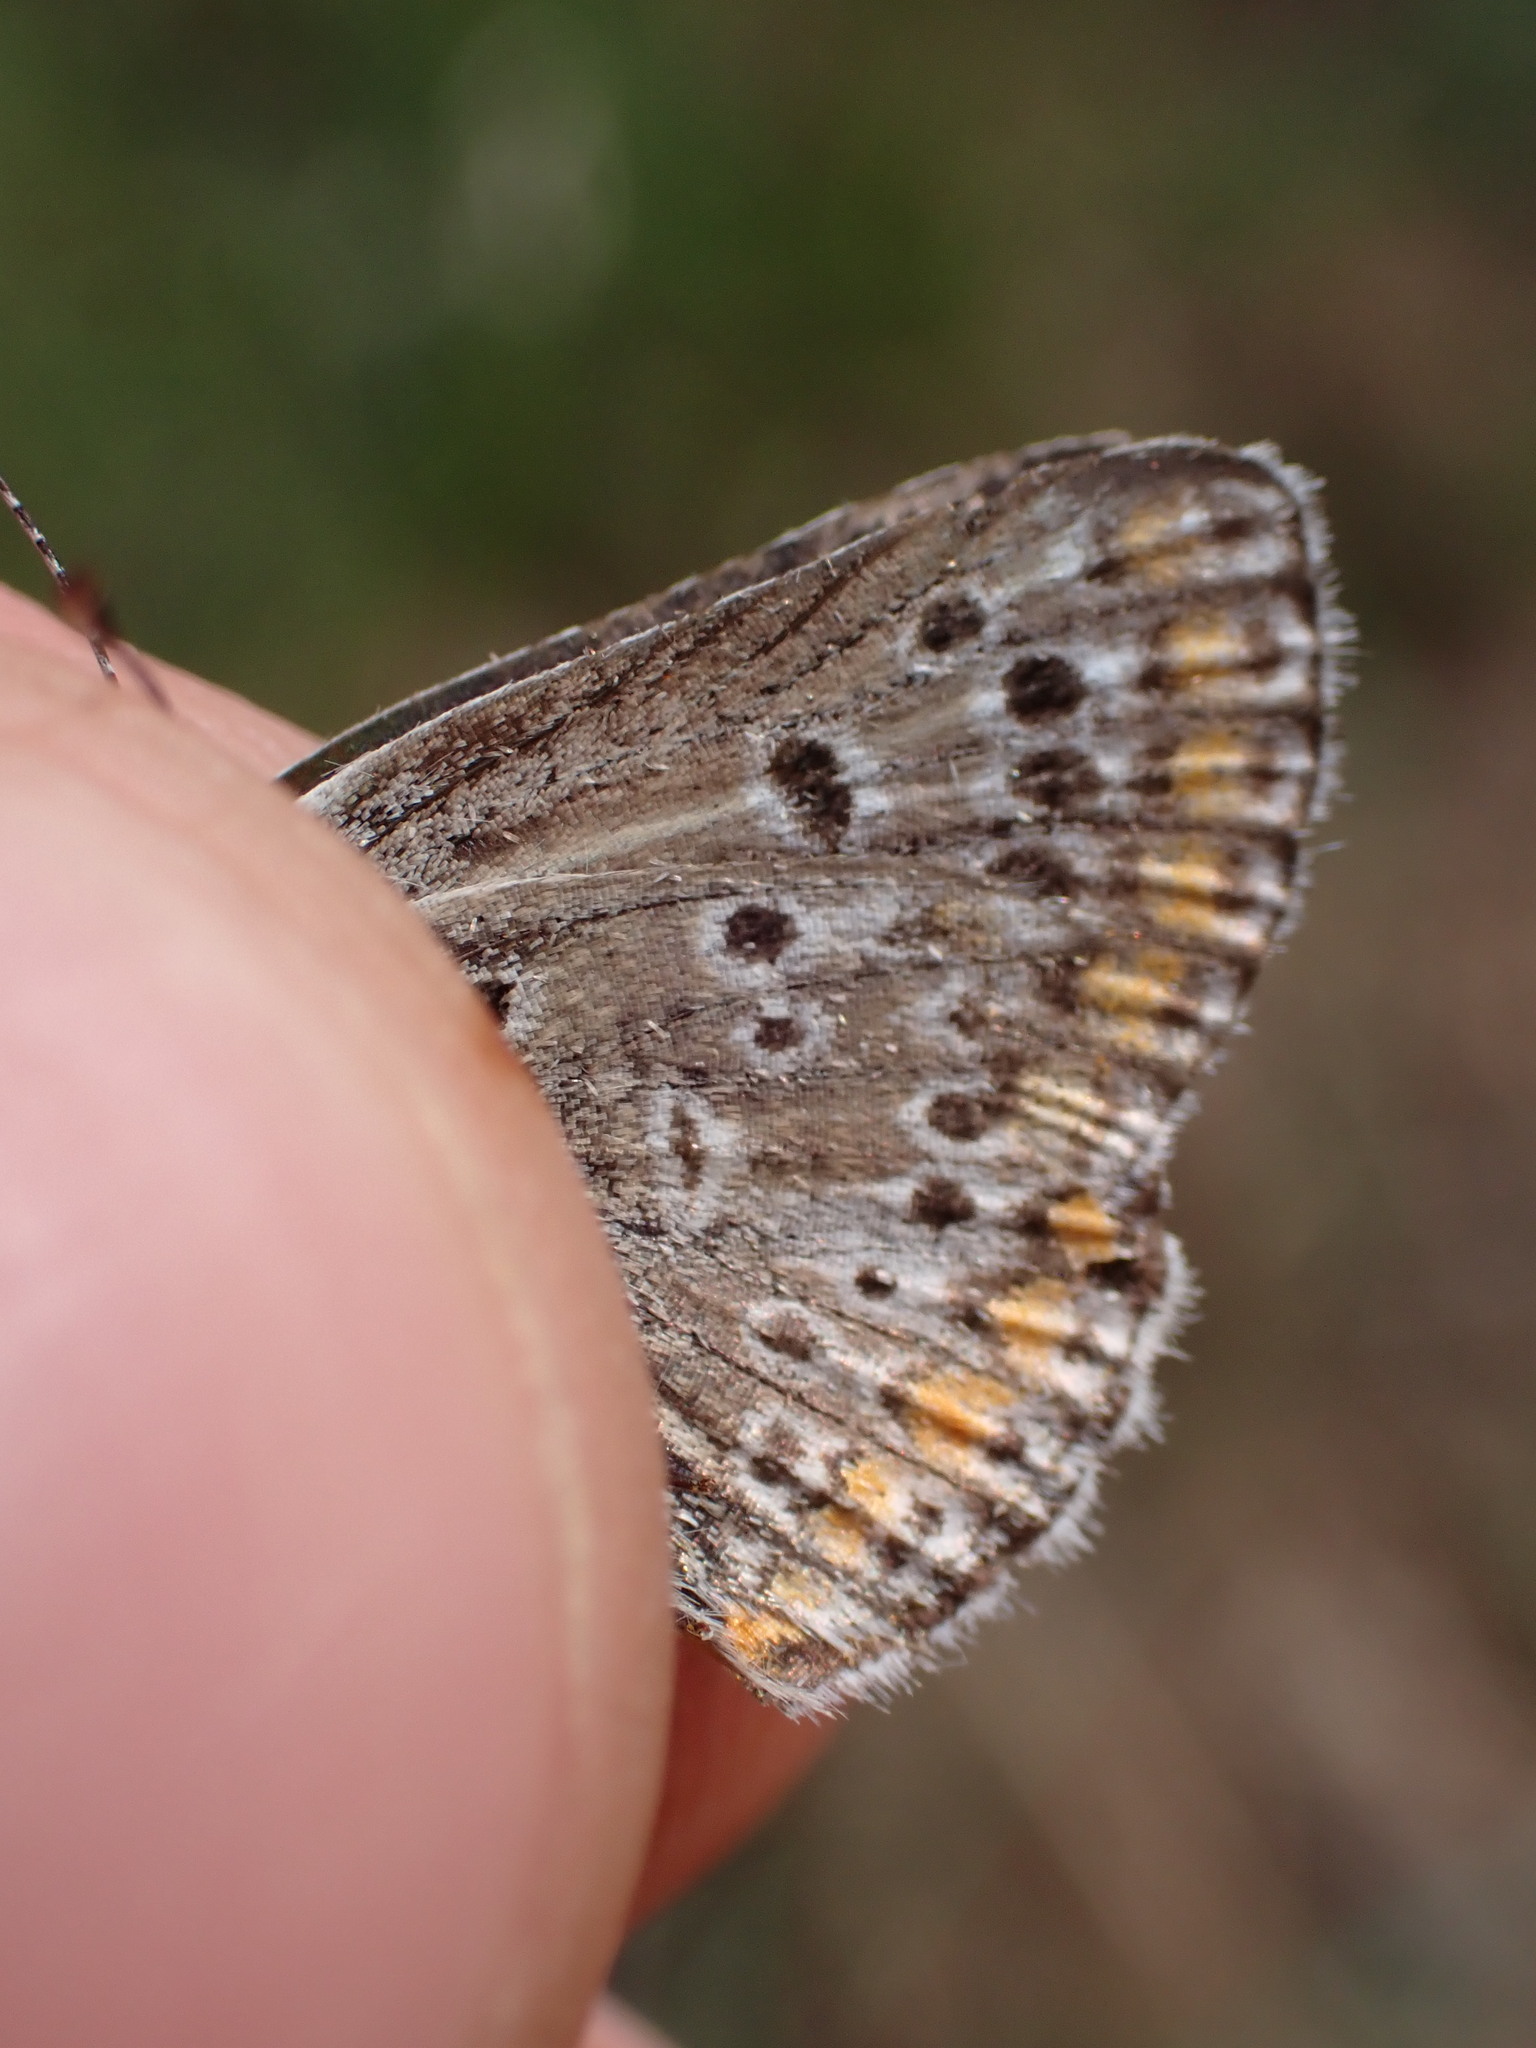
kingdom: Animalia
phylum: Arthropoda
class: Insecta
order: Lepidoptera
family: Lycaenidae
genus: Aricia
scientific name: Aricia agestis
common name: Brown argus
